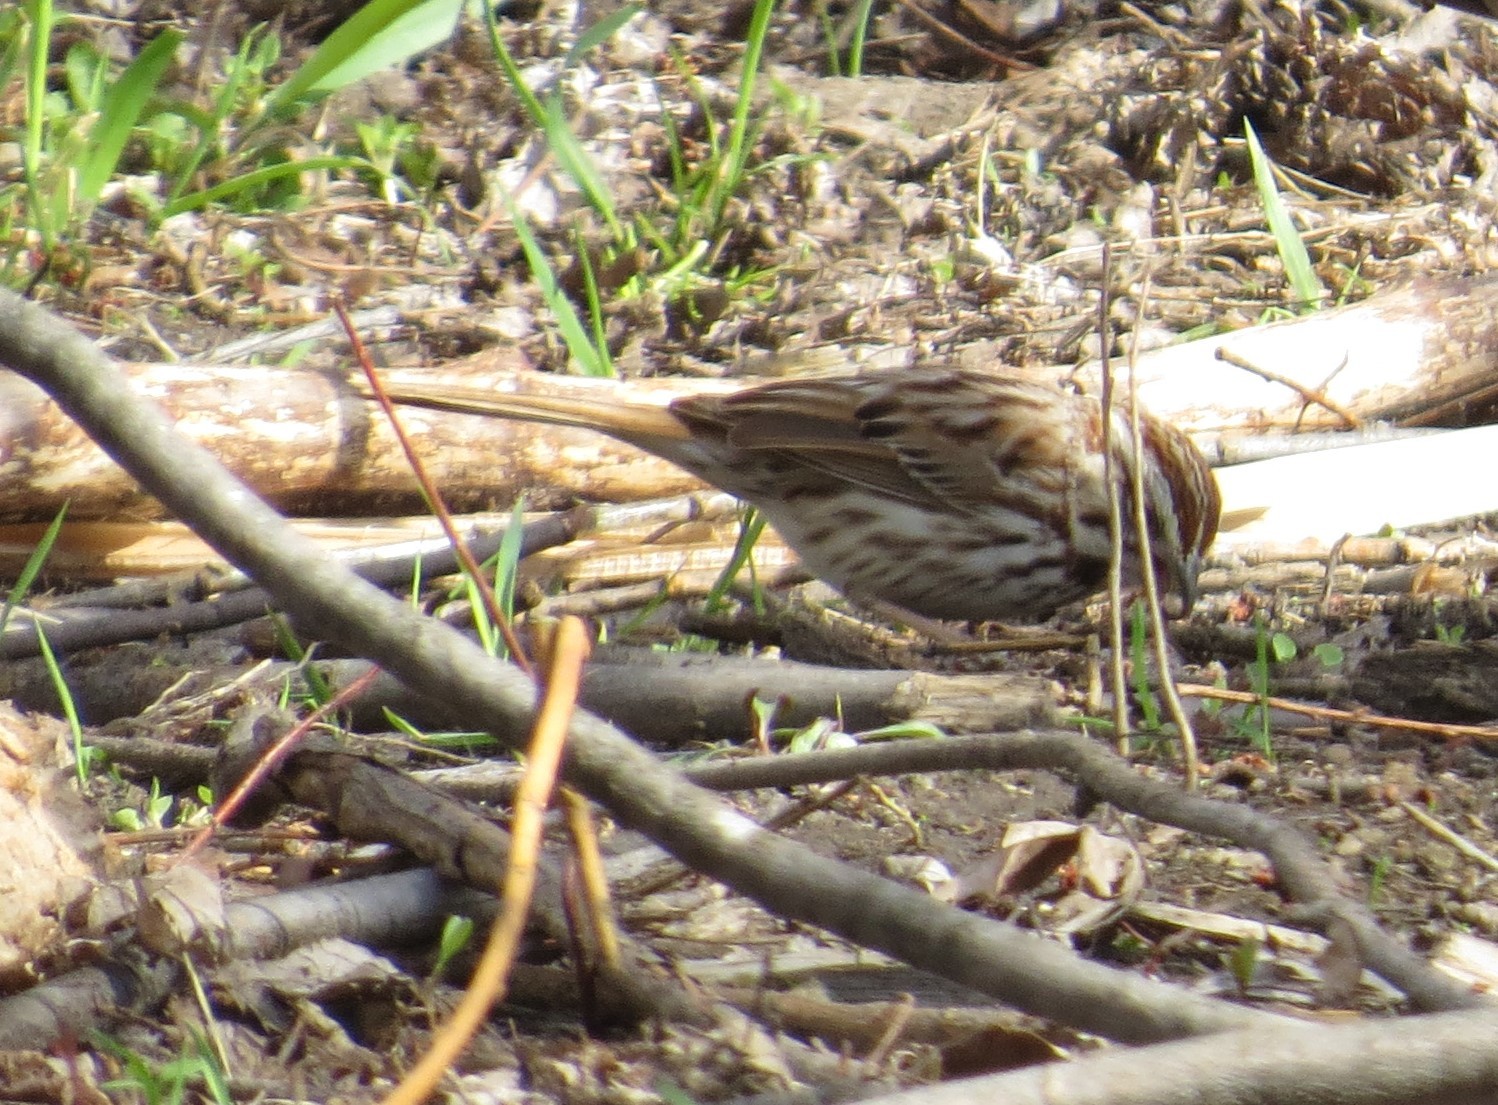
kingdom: Animalia
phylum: Chordata
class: Aves
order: Passeriformes
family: Passerellidae
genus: Melospiza
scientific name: Melospiza melodia
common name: Song sparrow
